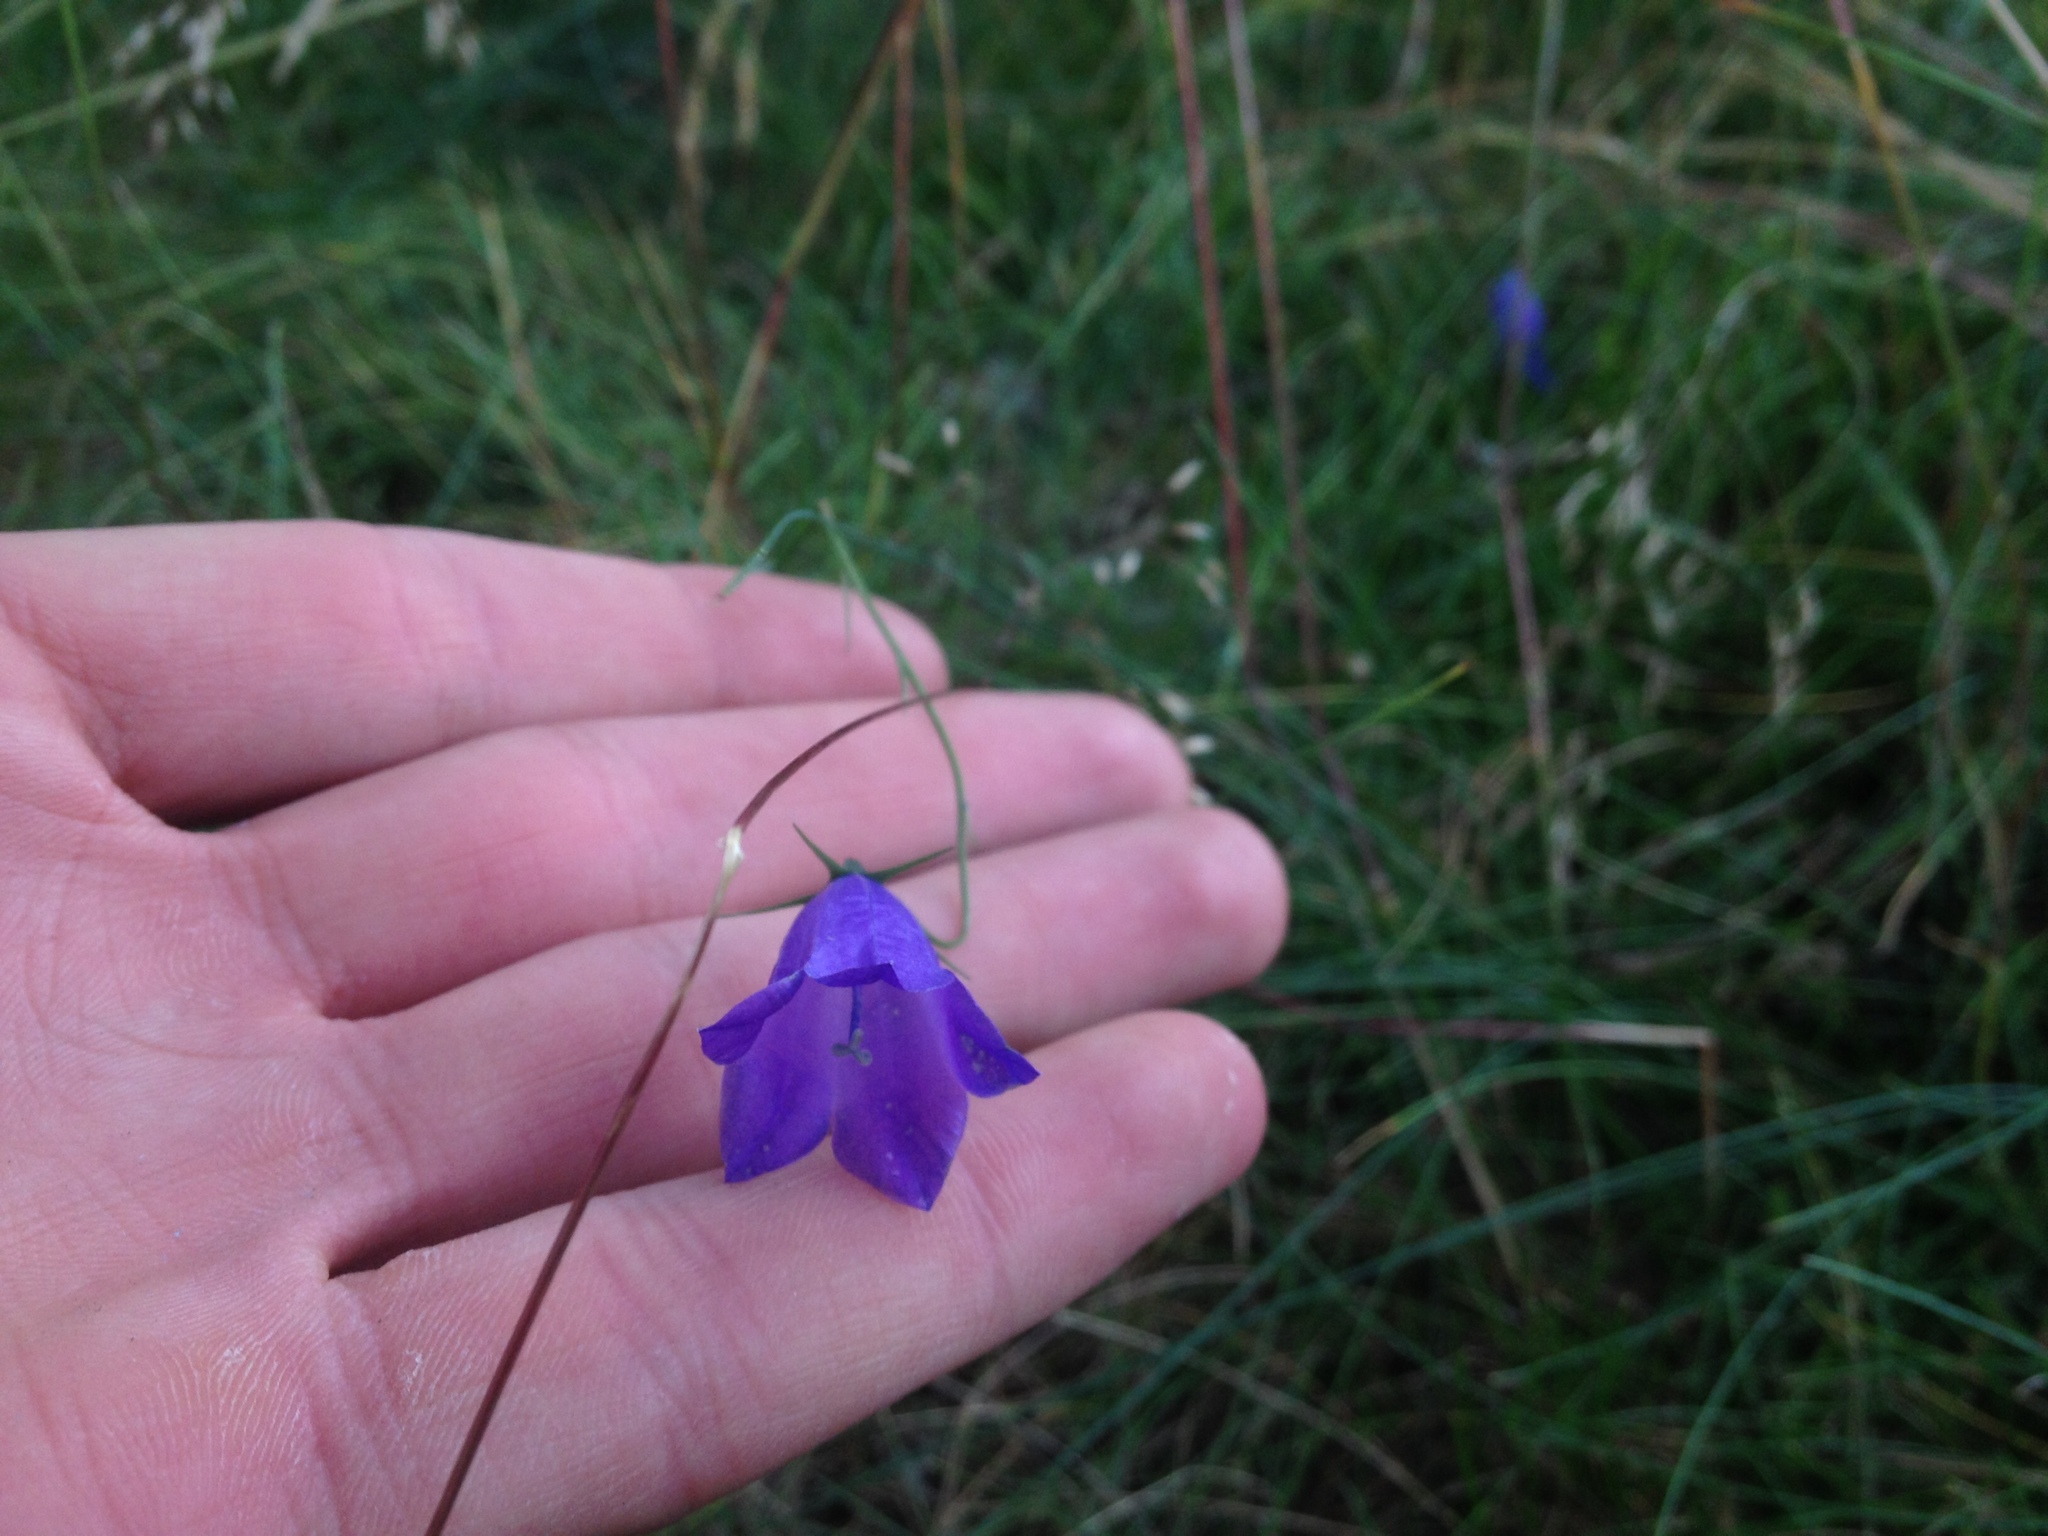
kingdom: Plantae
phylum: Tracheophyta
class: Magnoliopsida
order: Asterales
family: Campanulaceae
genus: Campanula
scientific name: Campanula scheuchzeri
